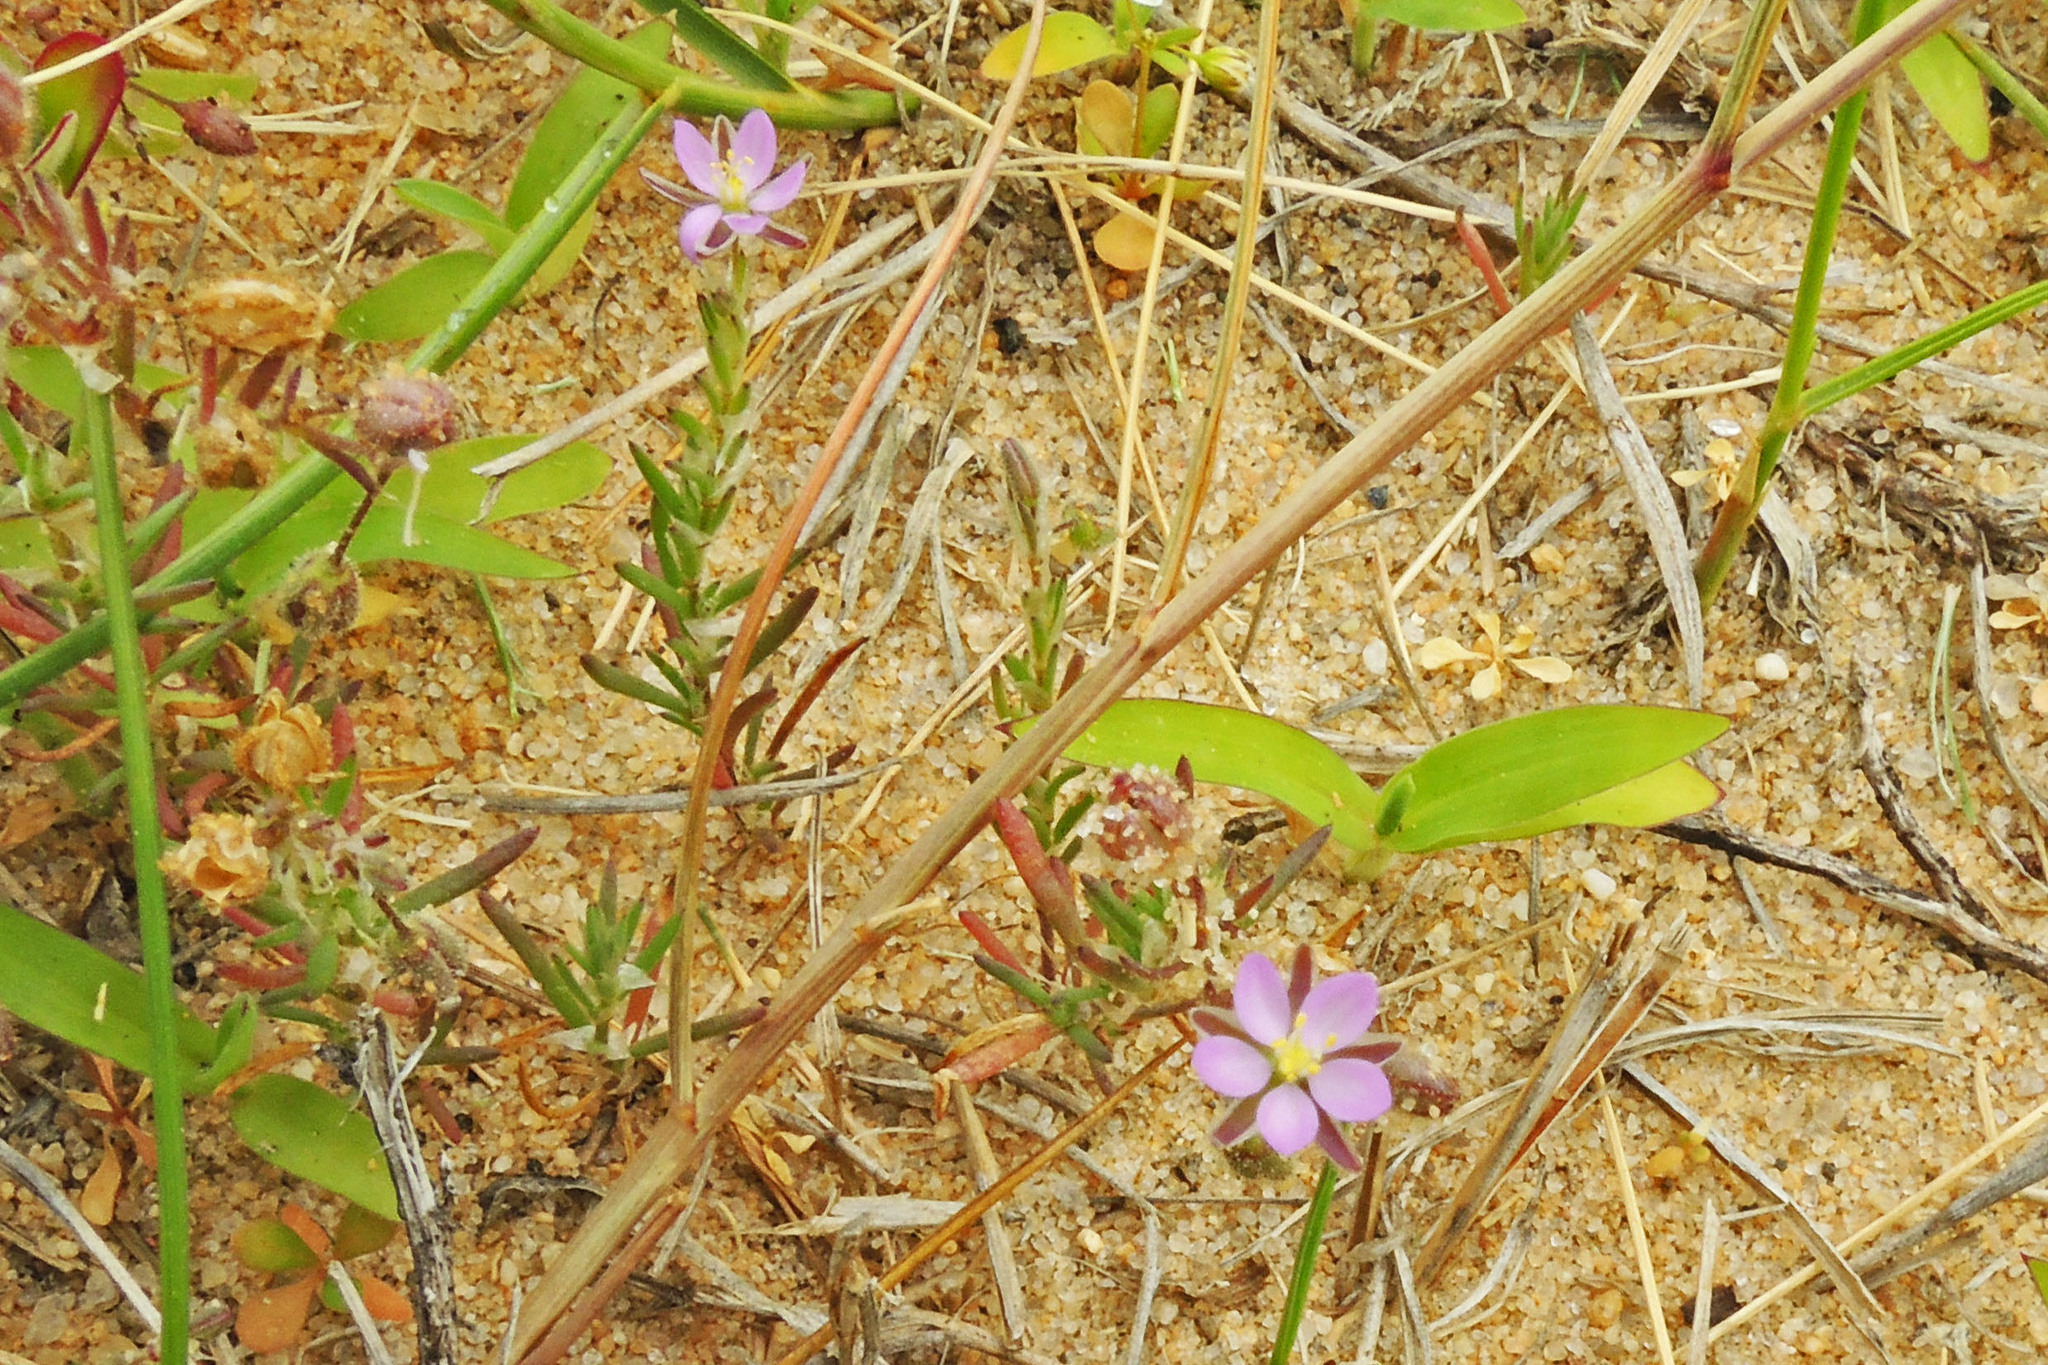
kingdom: Plantae
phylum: Tracheophyta
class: Magnoliopsida
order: Caryophyllales
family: Caryophyllaceae
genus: Spergularia
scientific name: Spergularia rubra
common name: Red sand-spurrey
